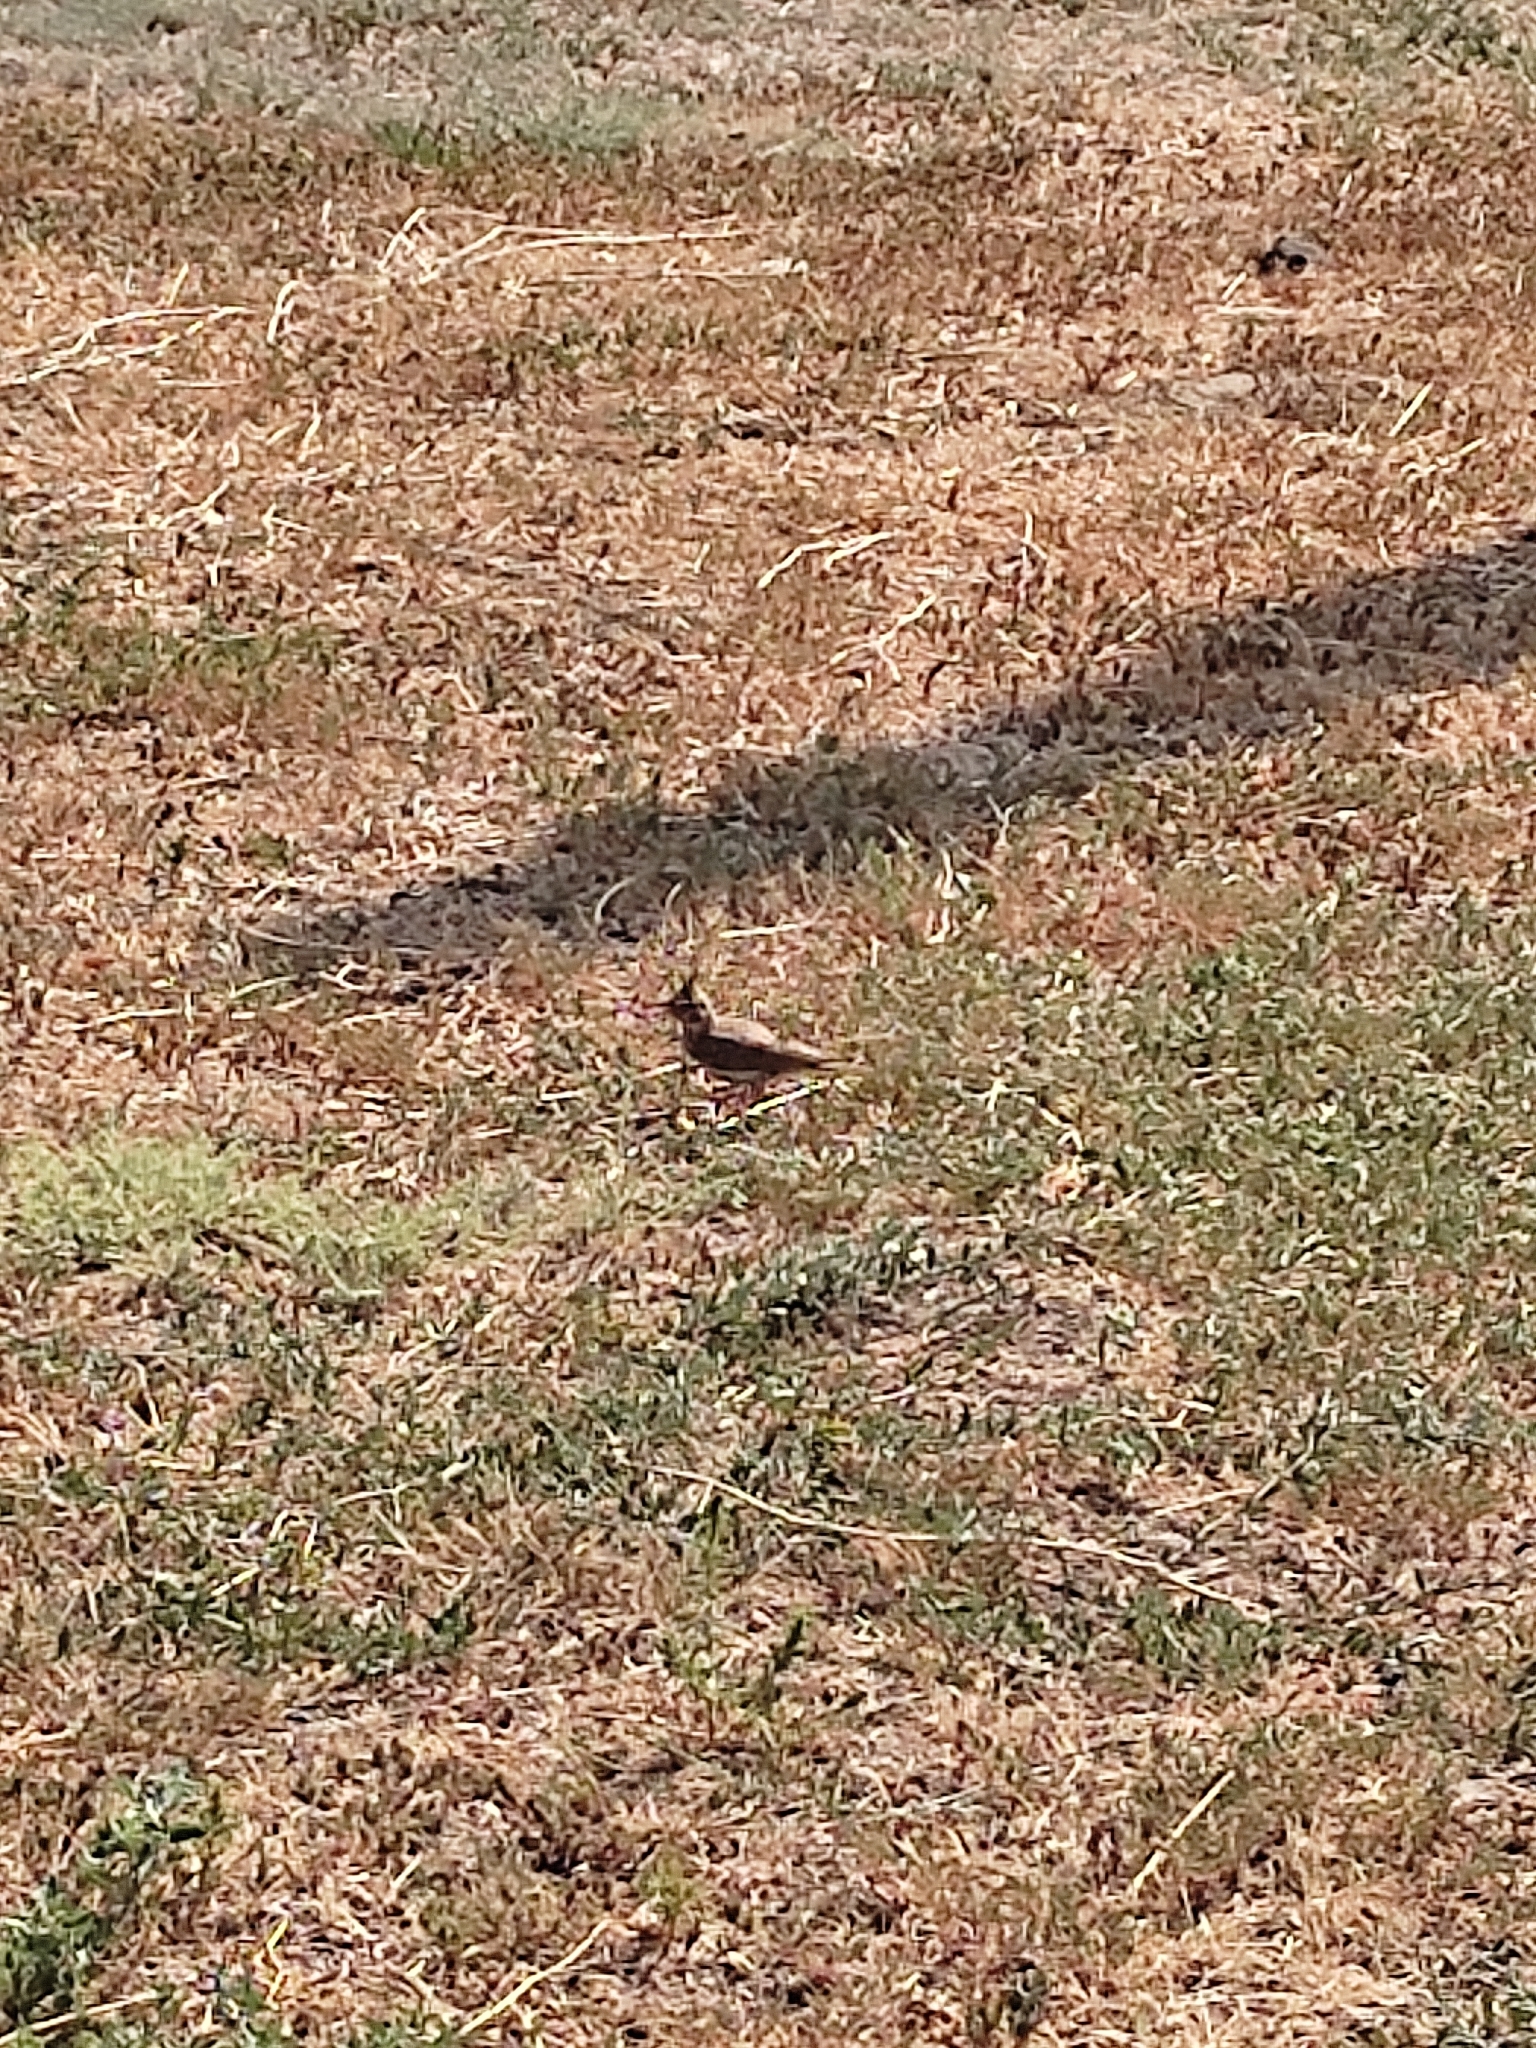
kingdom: Animalia
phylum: Chordata
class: Aves
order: Passeriformes
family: Alaudidae
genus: Galerida
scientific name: Galerida cristata
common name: Crested lark
